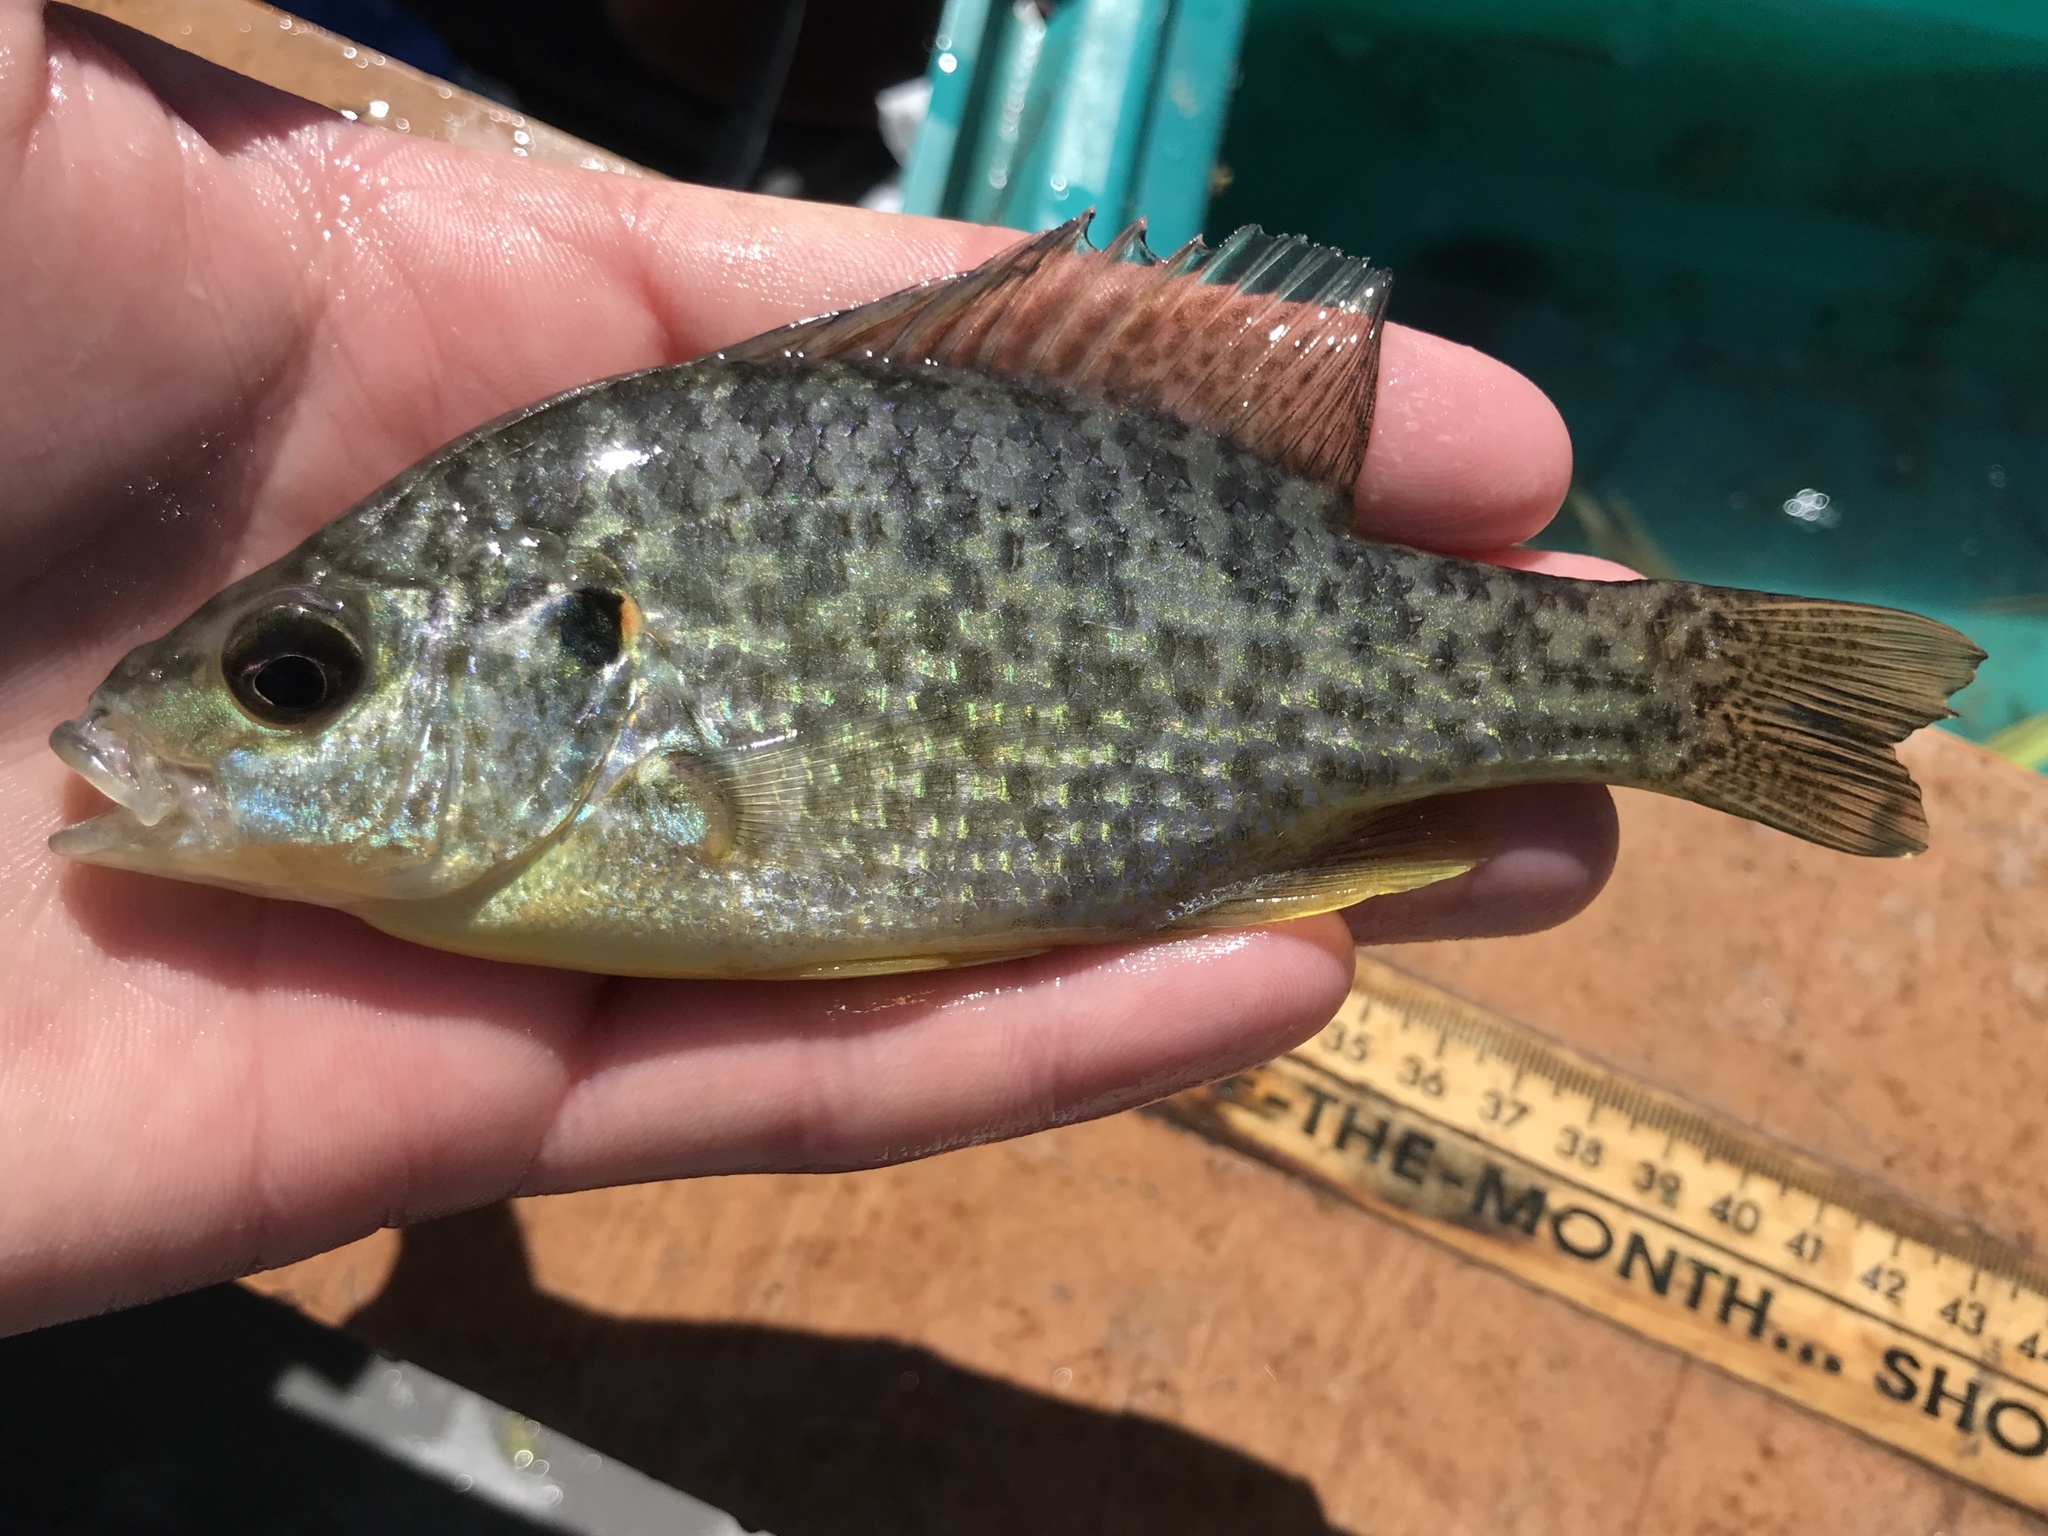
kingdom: Animalia
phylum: Chordata
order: Perciformes
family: Centrarchidae
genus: Lepomis
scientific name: Lepomis microlophus
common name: Redear sunfish
